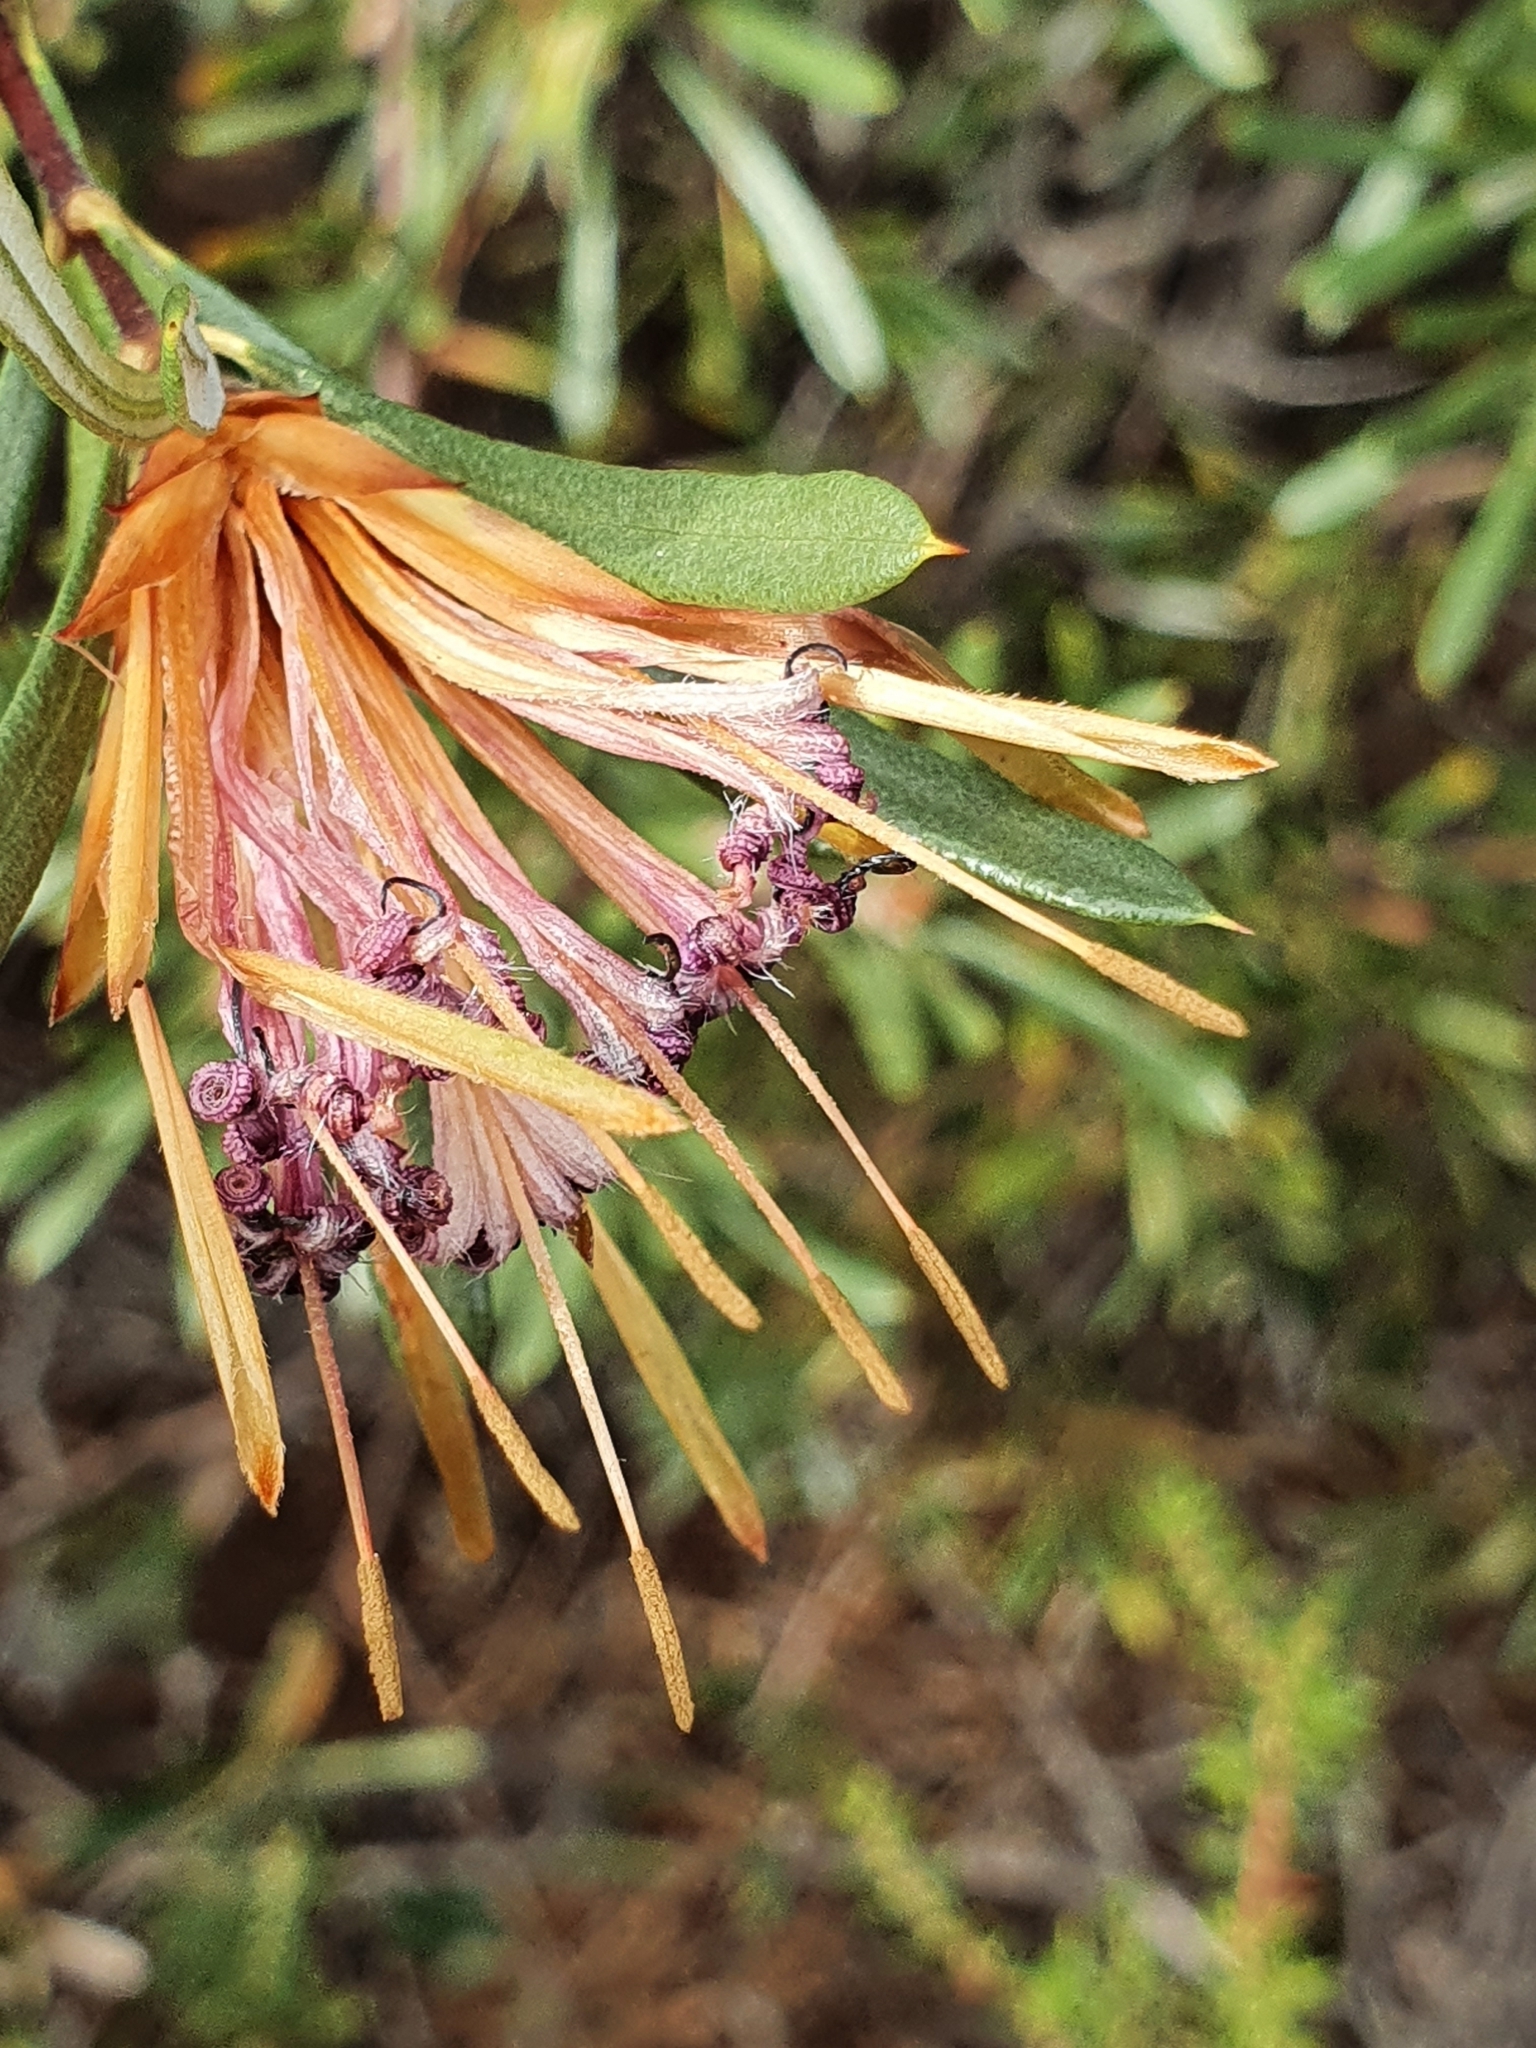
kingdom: Plantae
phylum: Tracheophyta
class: Magnoliopsida
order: Proteales
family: Proteaceae
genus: Lambertia
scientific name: Lambertia formosa
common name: Mountain-devil
